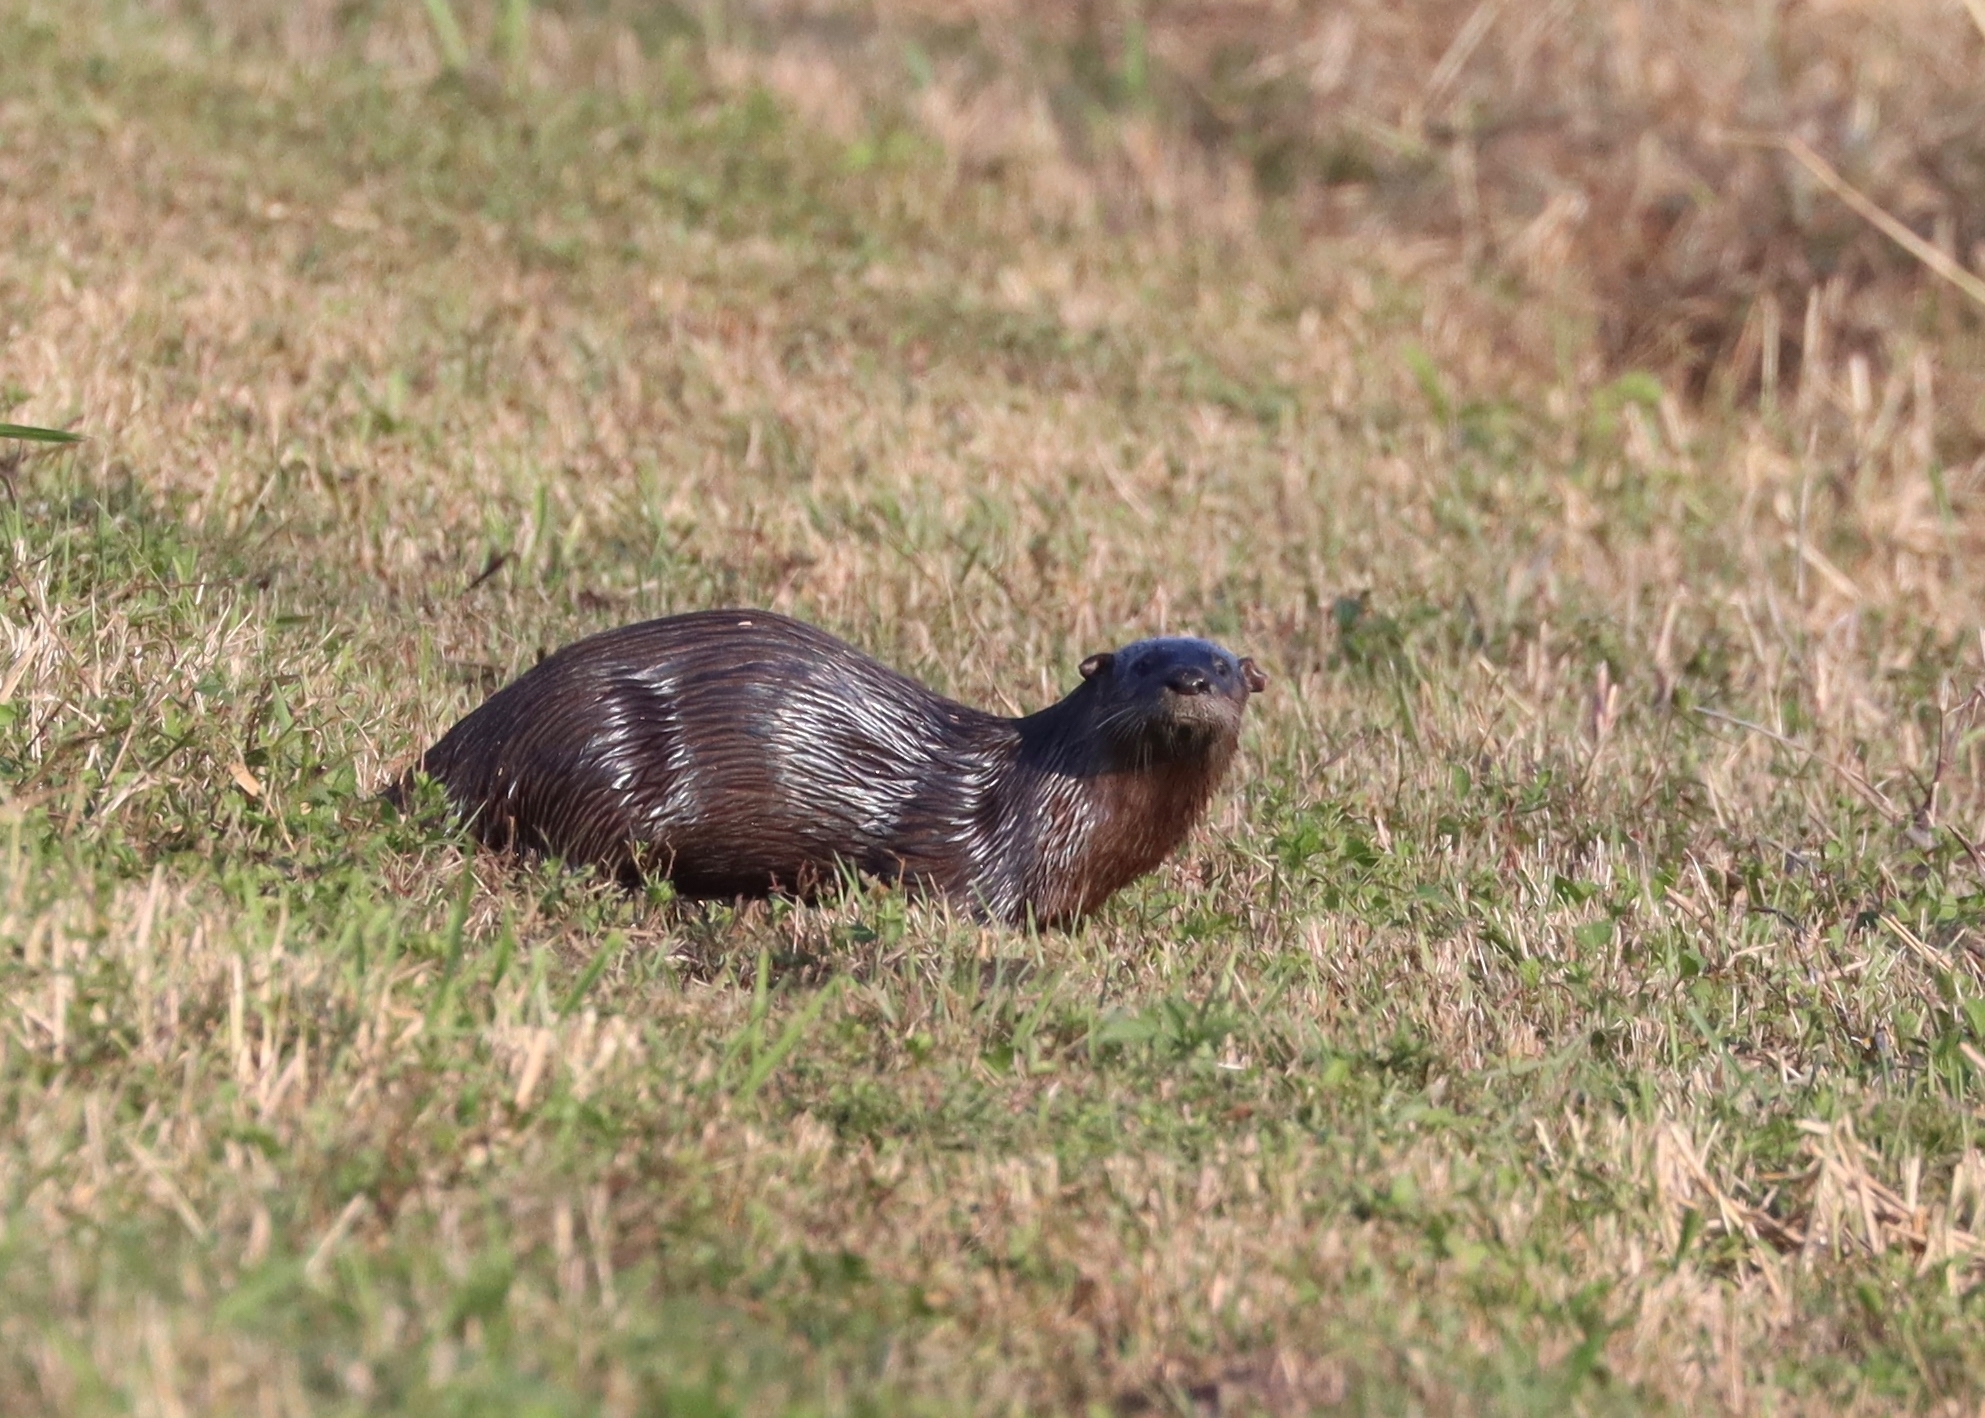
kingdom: Animalia
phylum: Chordata
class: Mammalia
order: Carnivora
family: Mustelidae
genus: Lontra
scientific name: Lontra canadensis
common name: North american river otter
